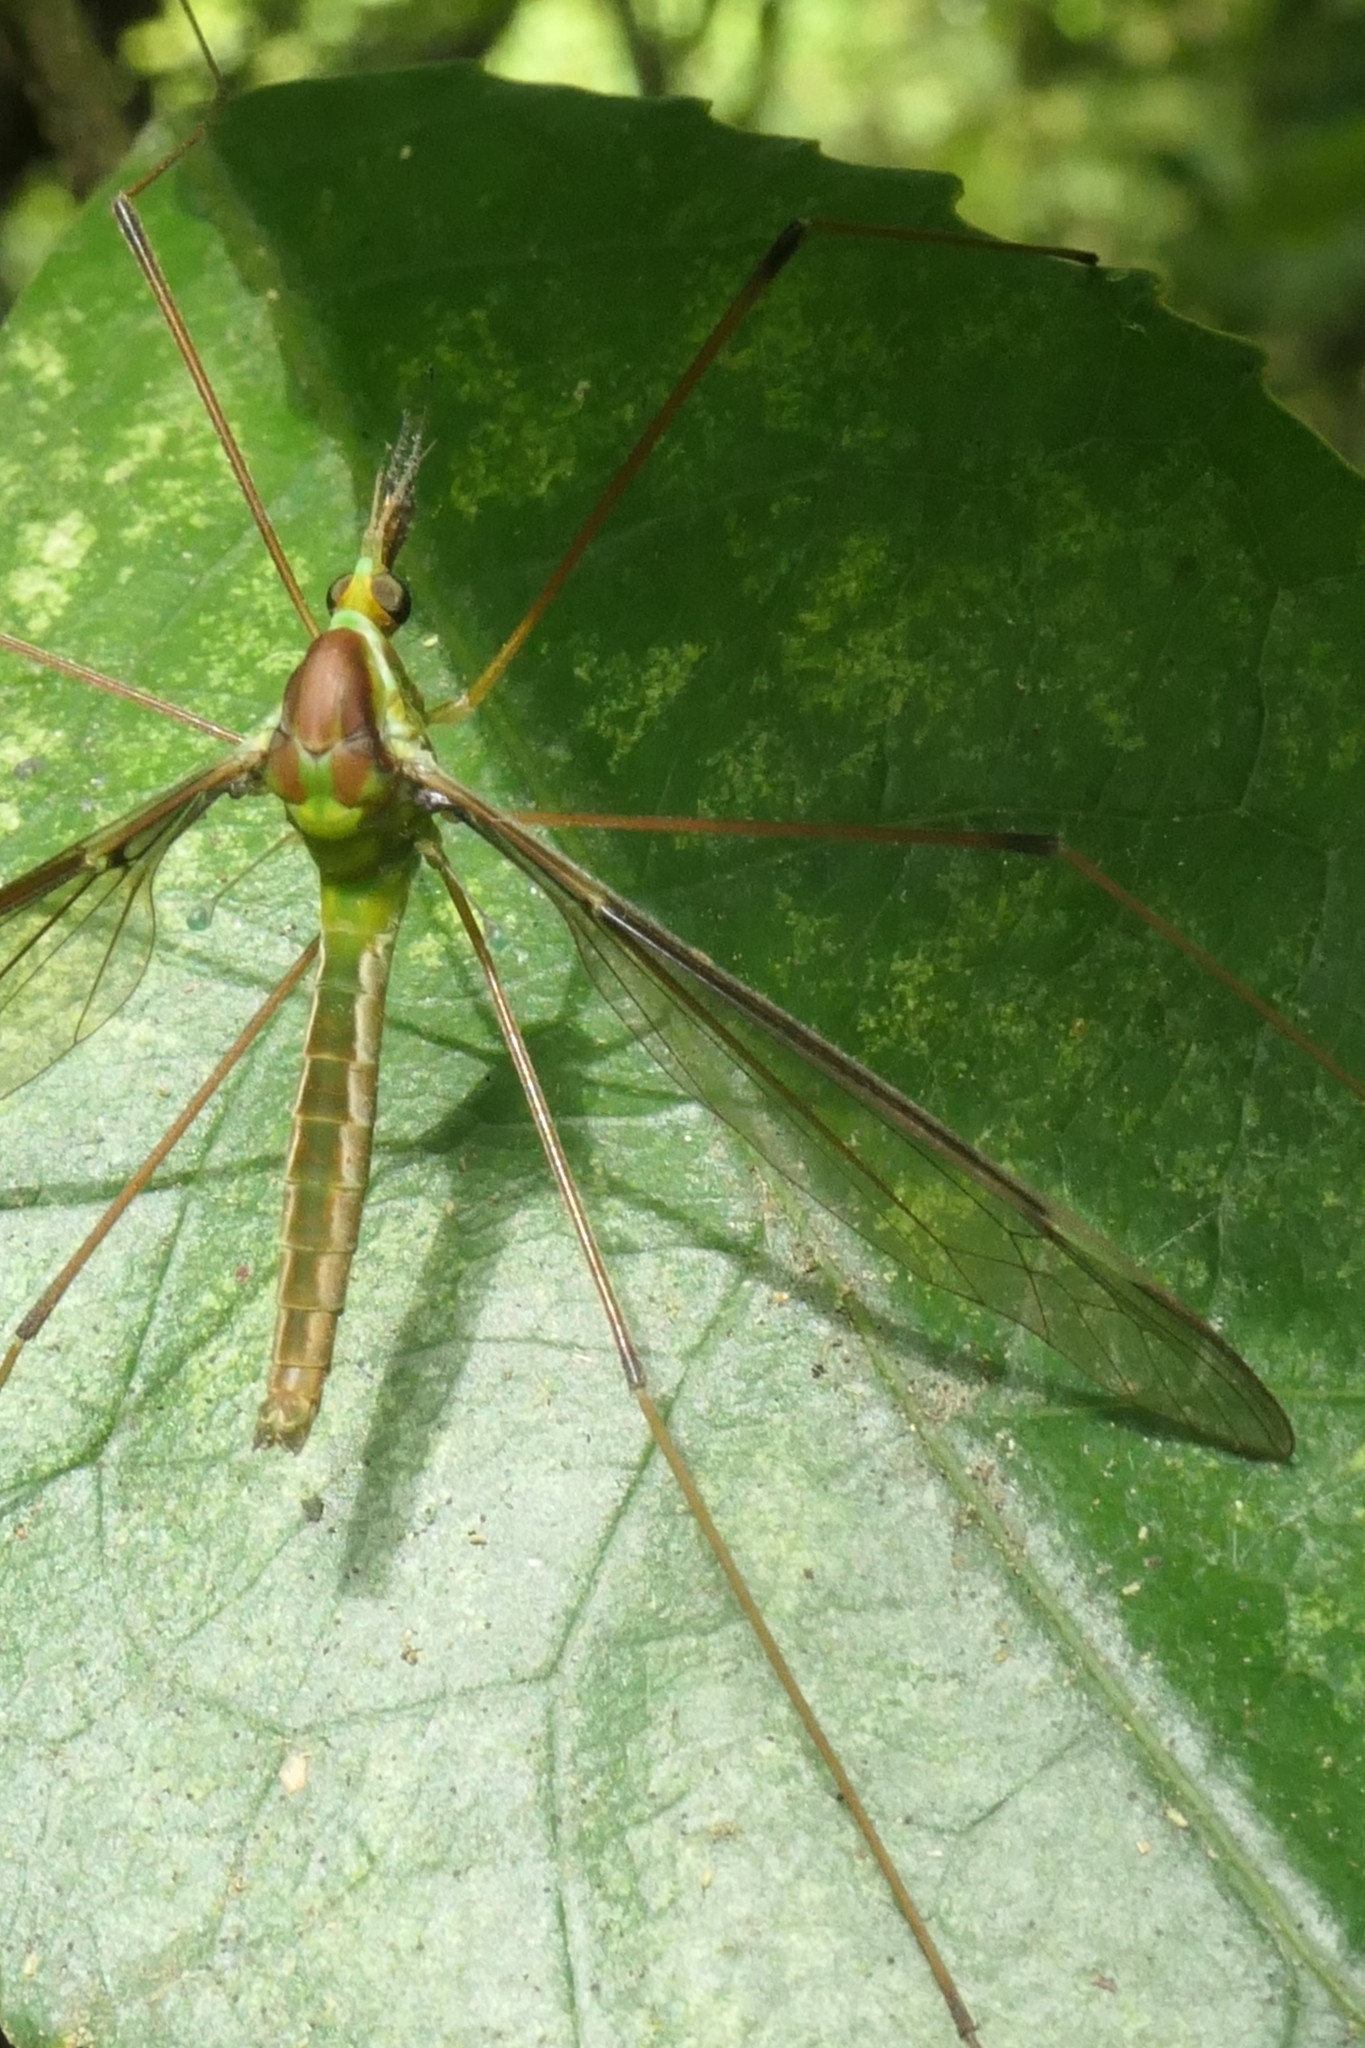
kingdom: Animalia
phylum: Arthropoda
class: Insecta
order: Diptera
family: Tipulidae
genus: Leptotarsus
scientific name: Leptotarsus albistigma
